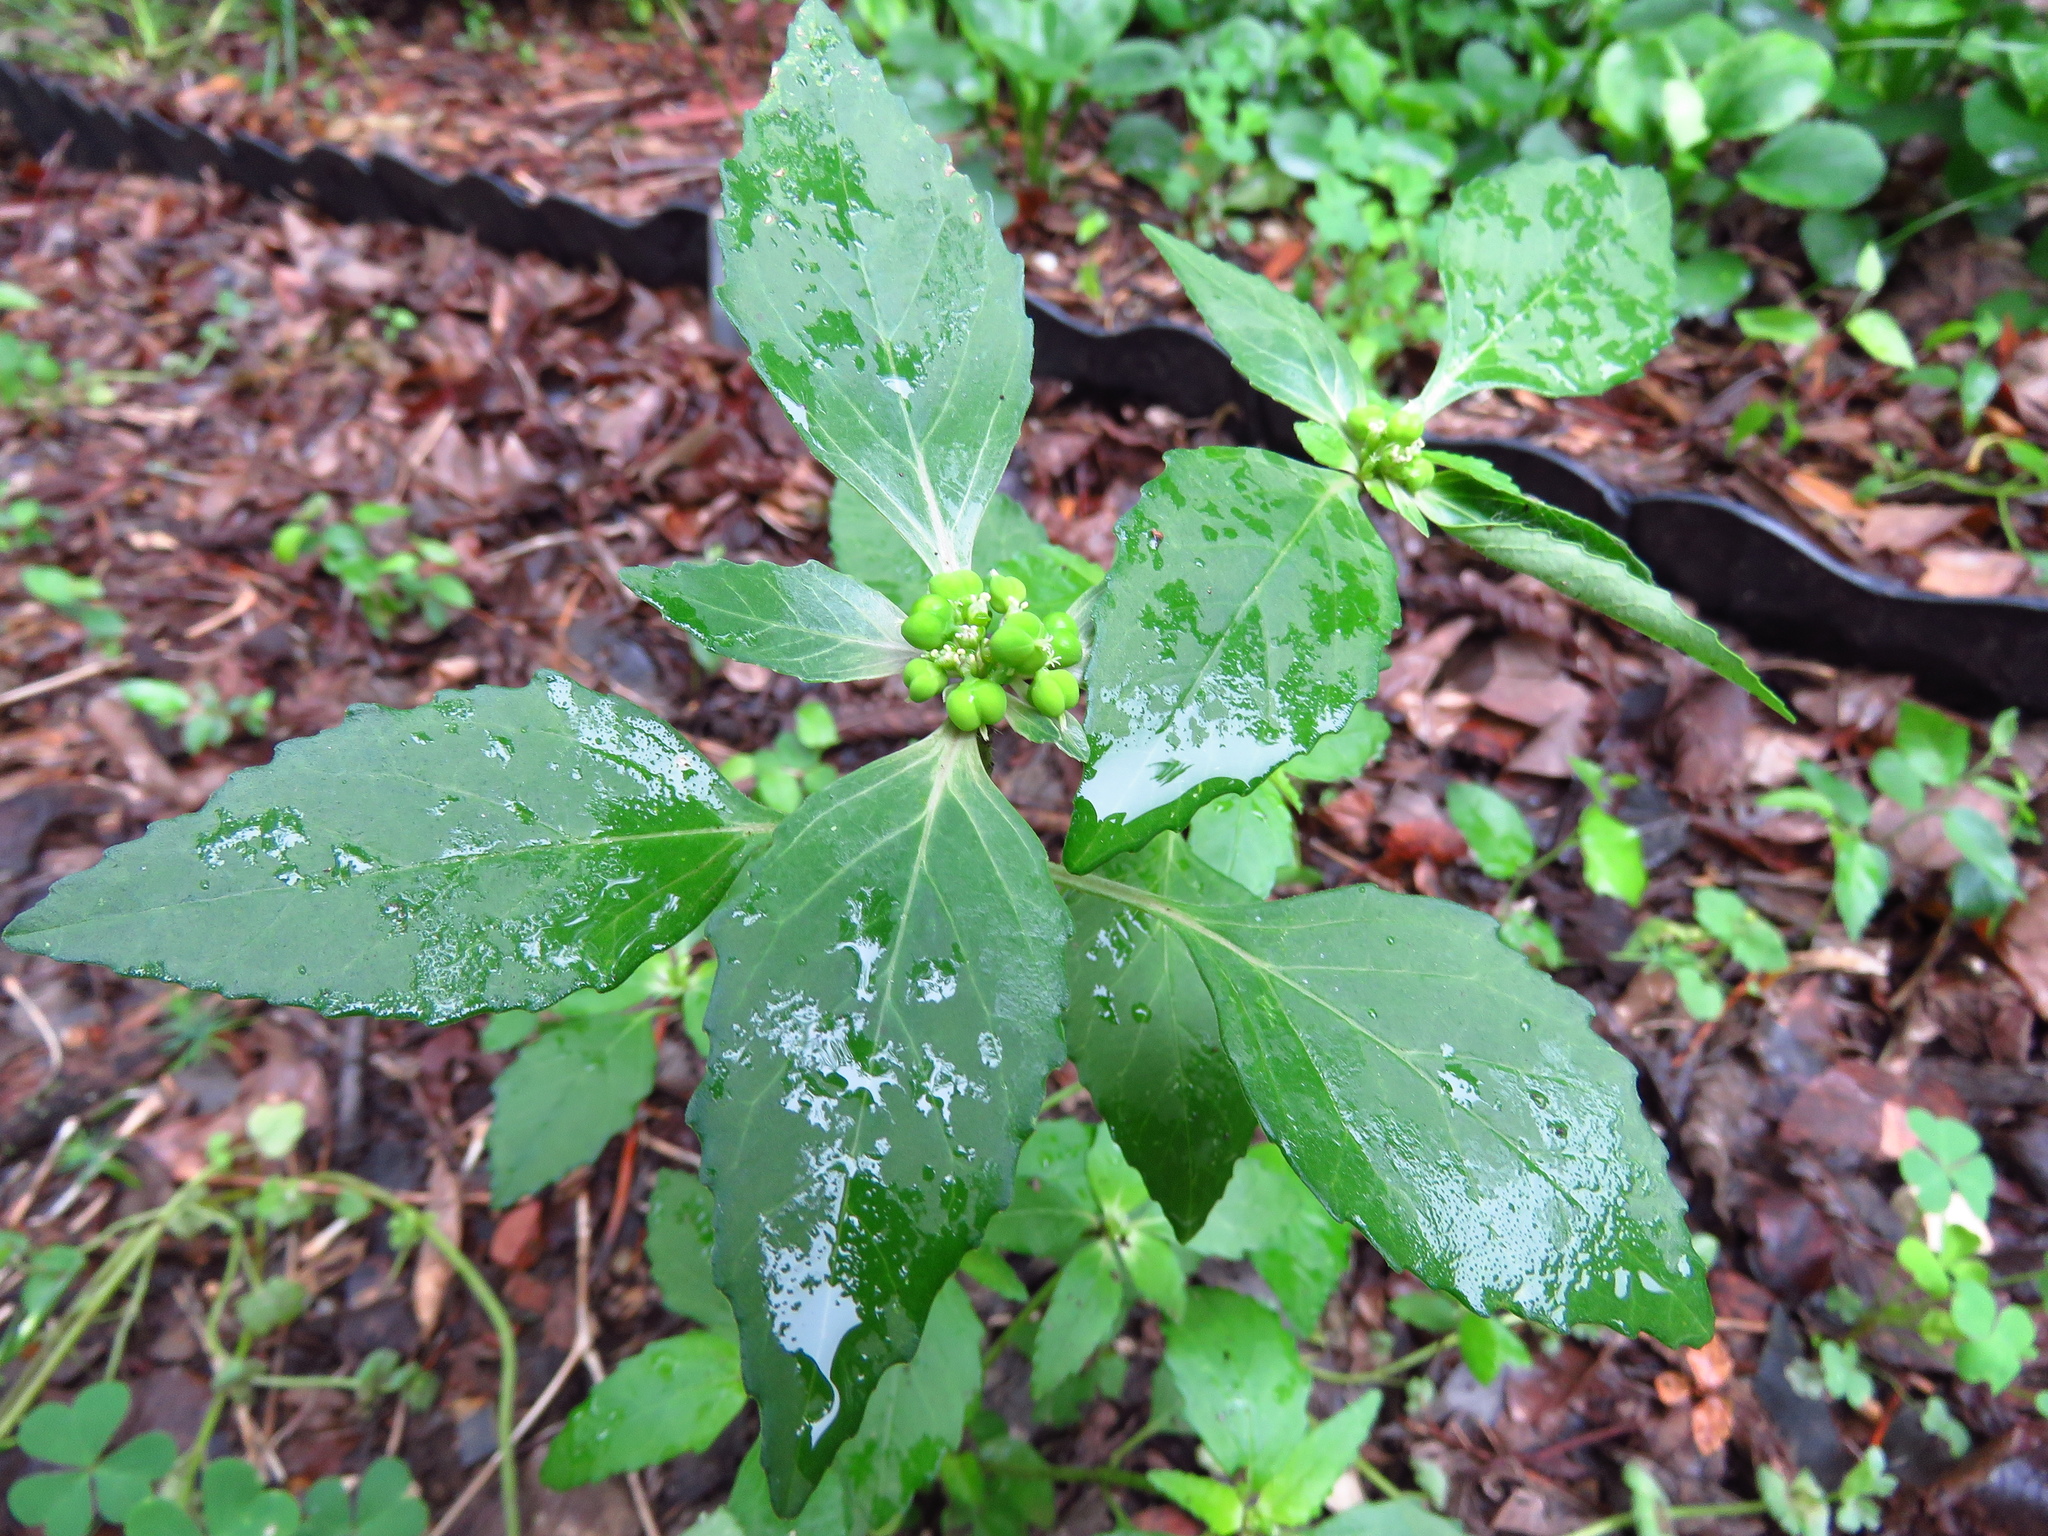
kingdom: Plantae
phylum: Tracheophyta
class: Magnoliopsida
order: Malpighiales
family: Euphorbiaceae
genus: Euphorbia
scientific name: Euphorbia dentata
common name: Dentate spurge
